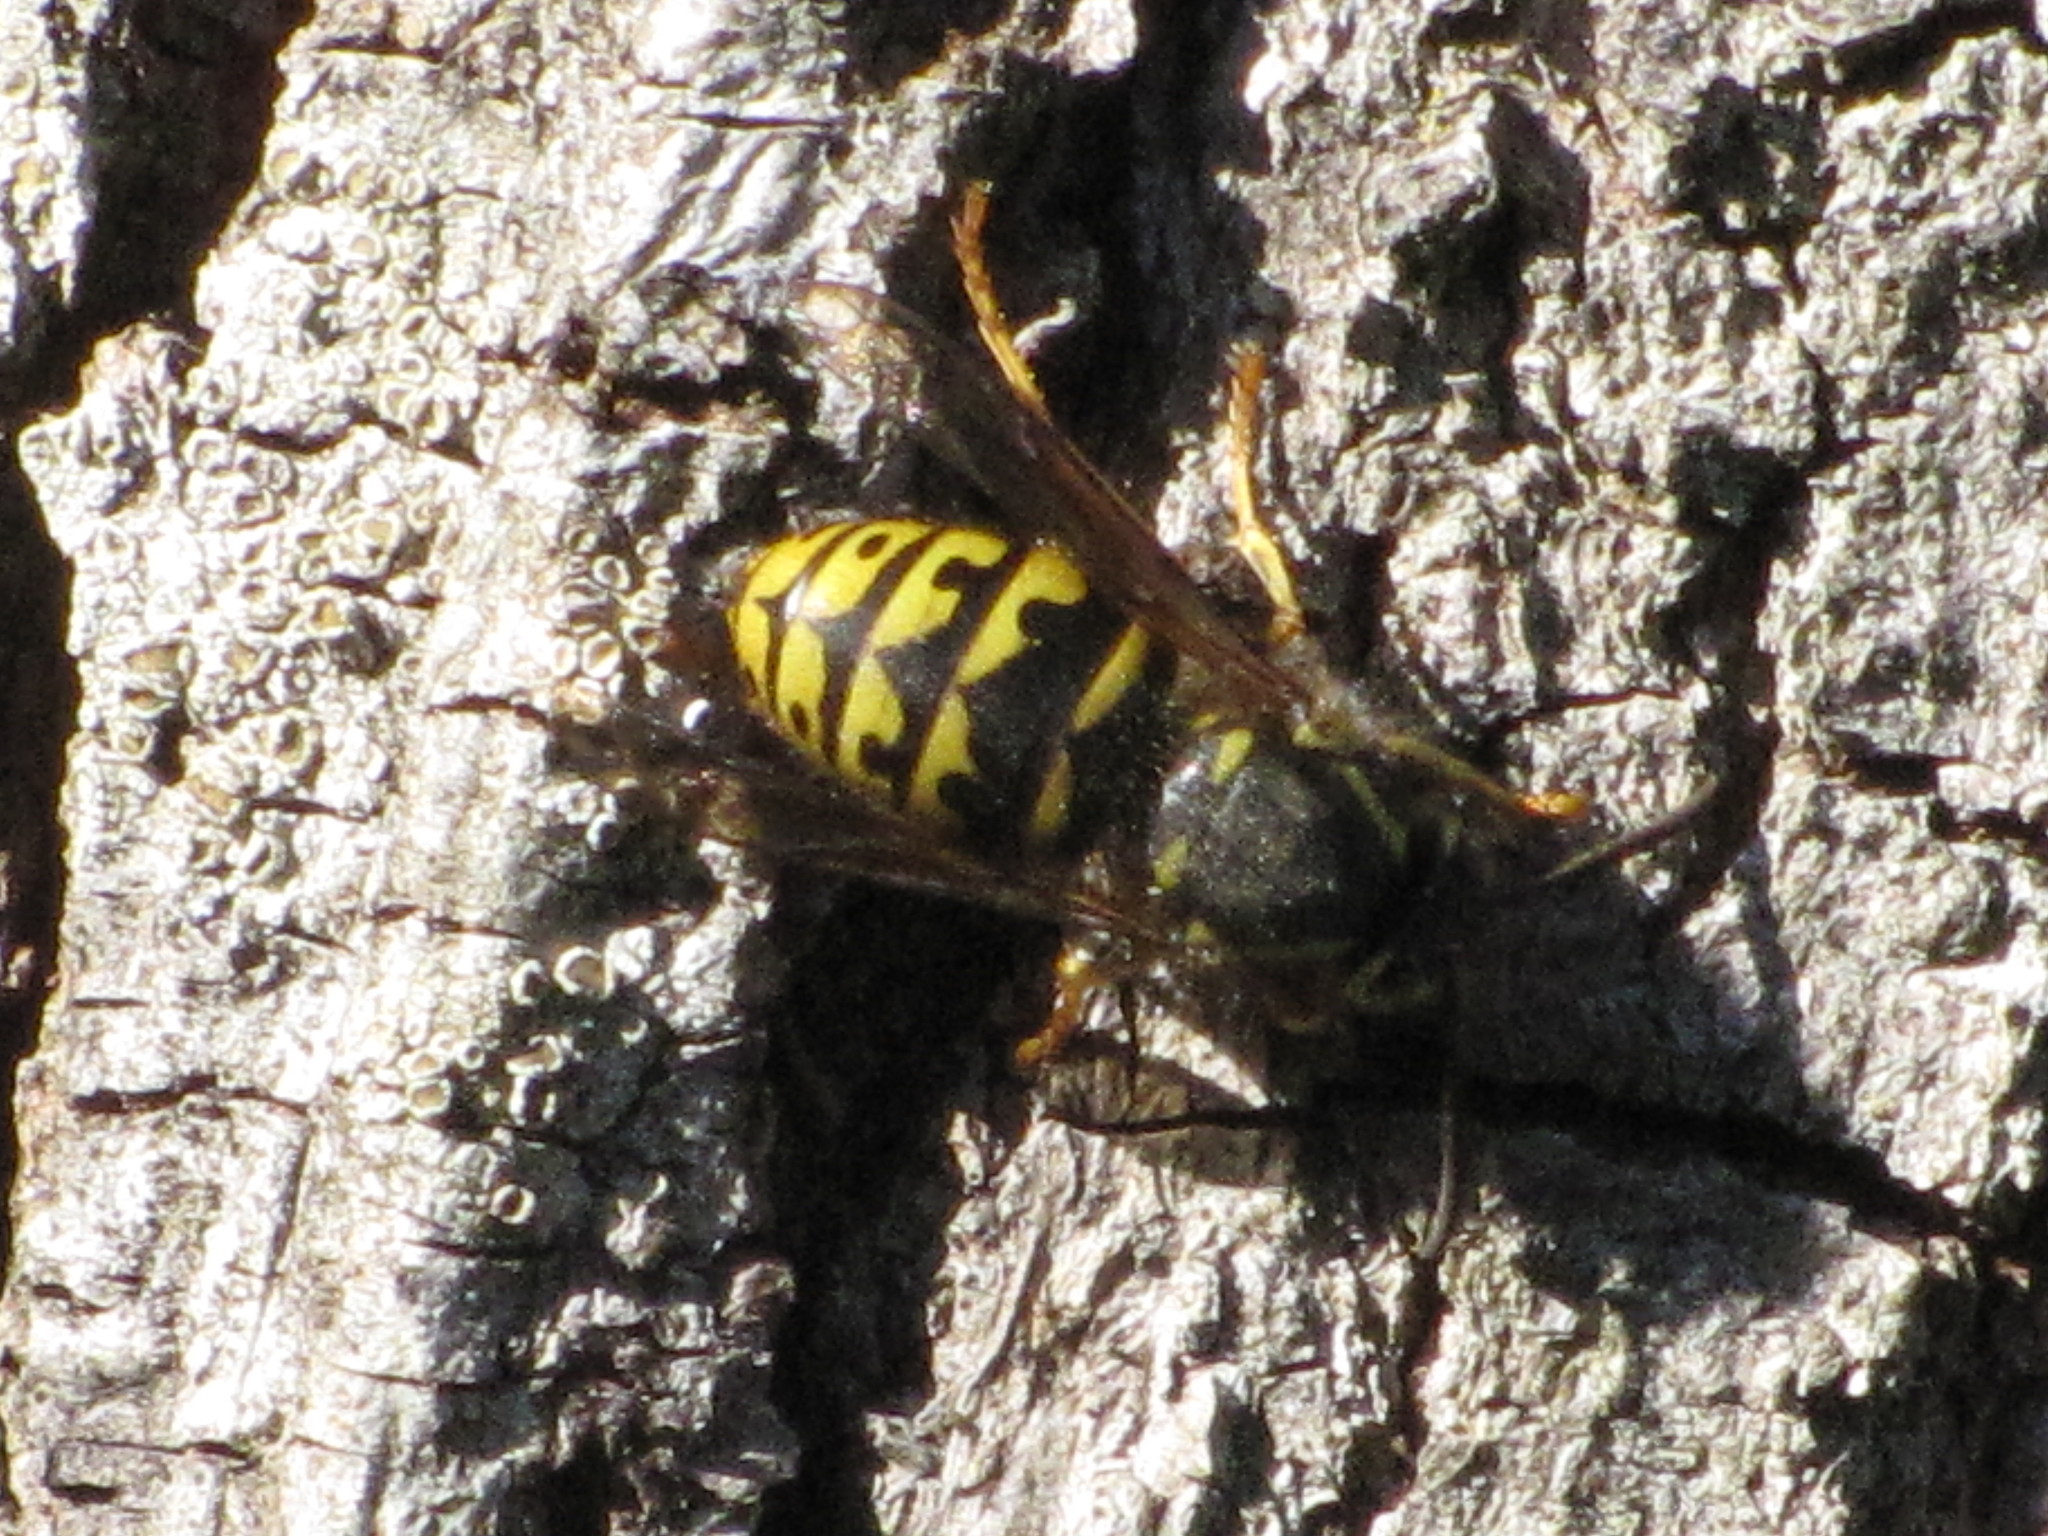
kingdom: Animalia
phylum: Arthropoda
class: Insecta
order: Hymenoptera
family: Vespidae
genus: Dolichovespula
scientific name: Dolichovespula arenaria
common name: Aerial yellowjacket
